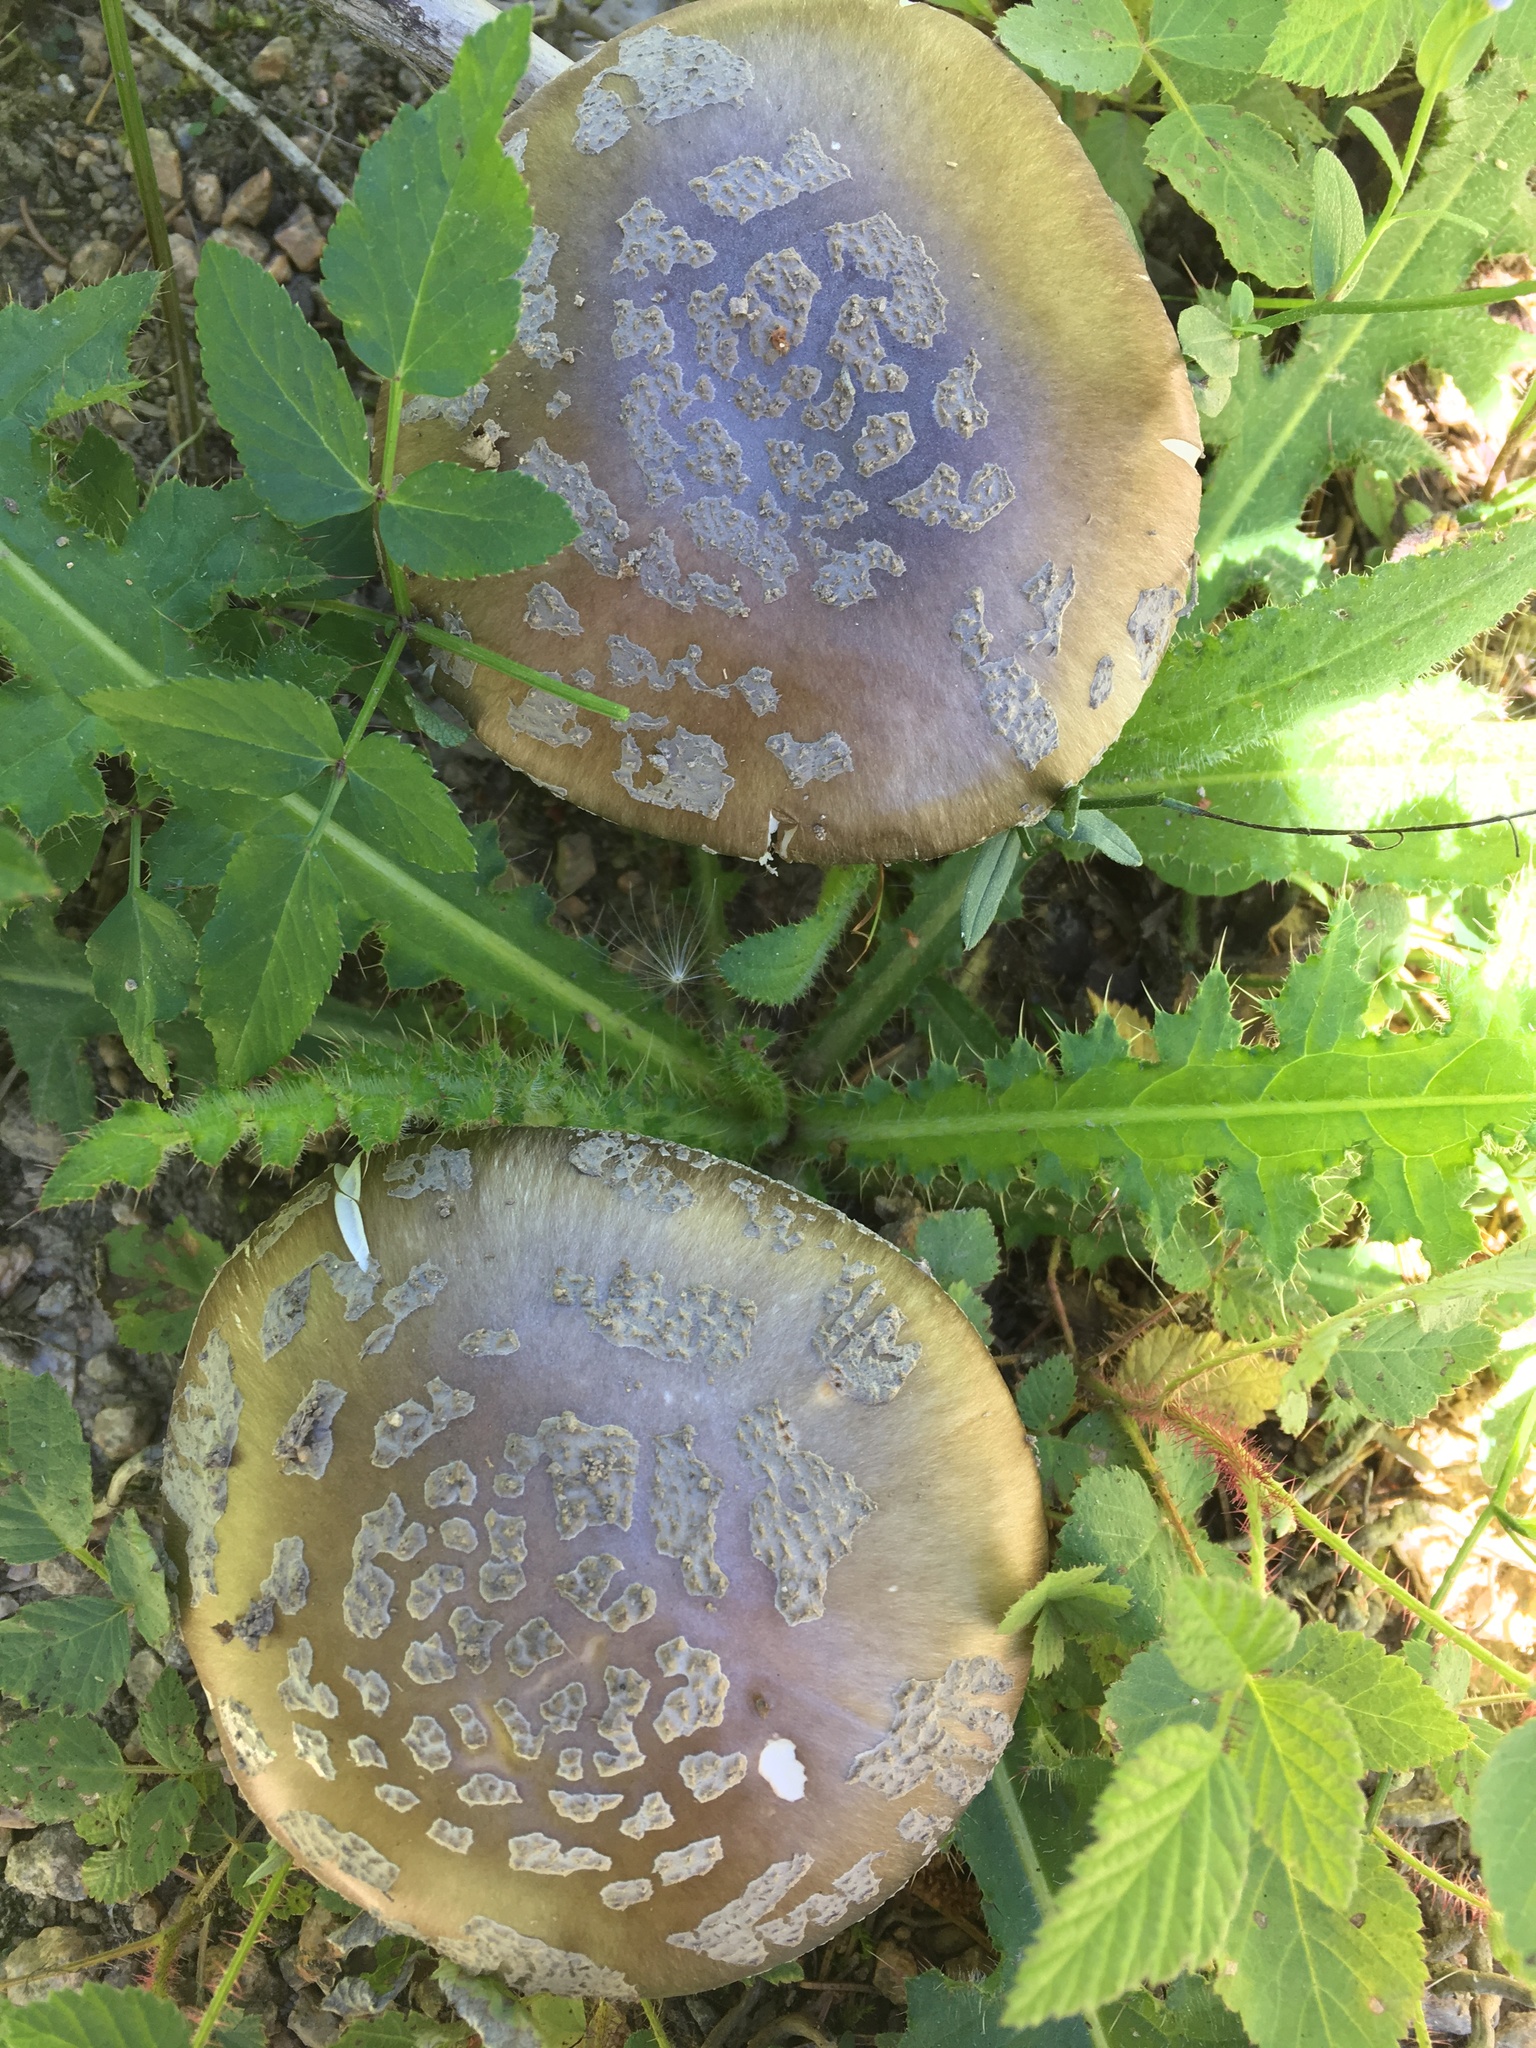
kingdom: Fungi
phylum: Basidiomycota
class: Agaricomycetes
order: Agaricales
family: Amanitaceae
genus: Amanita
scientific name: Amanita excelsa
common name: European false blusher
